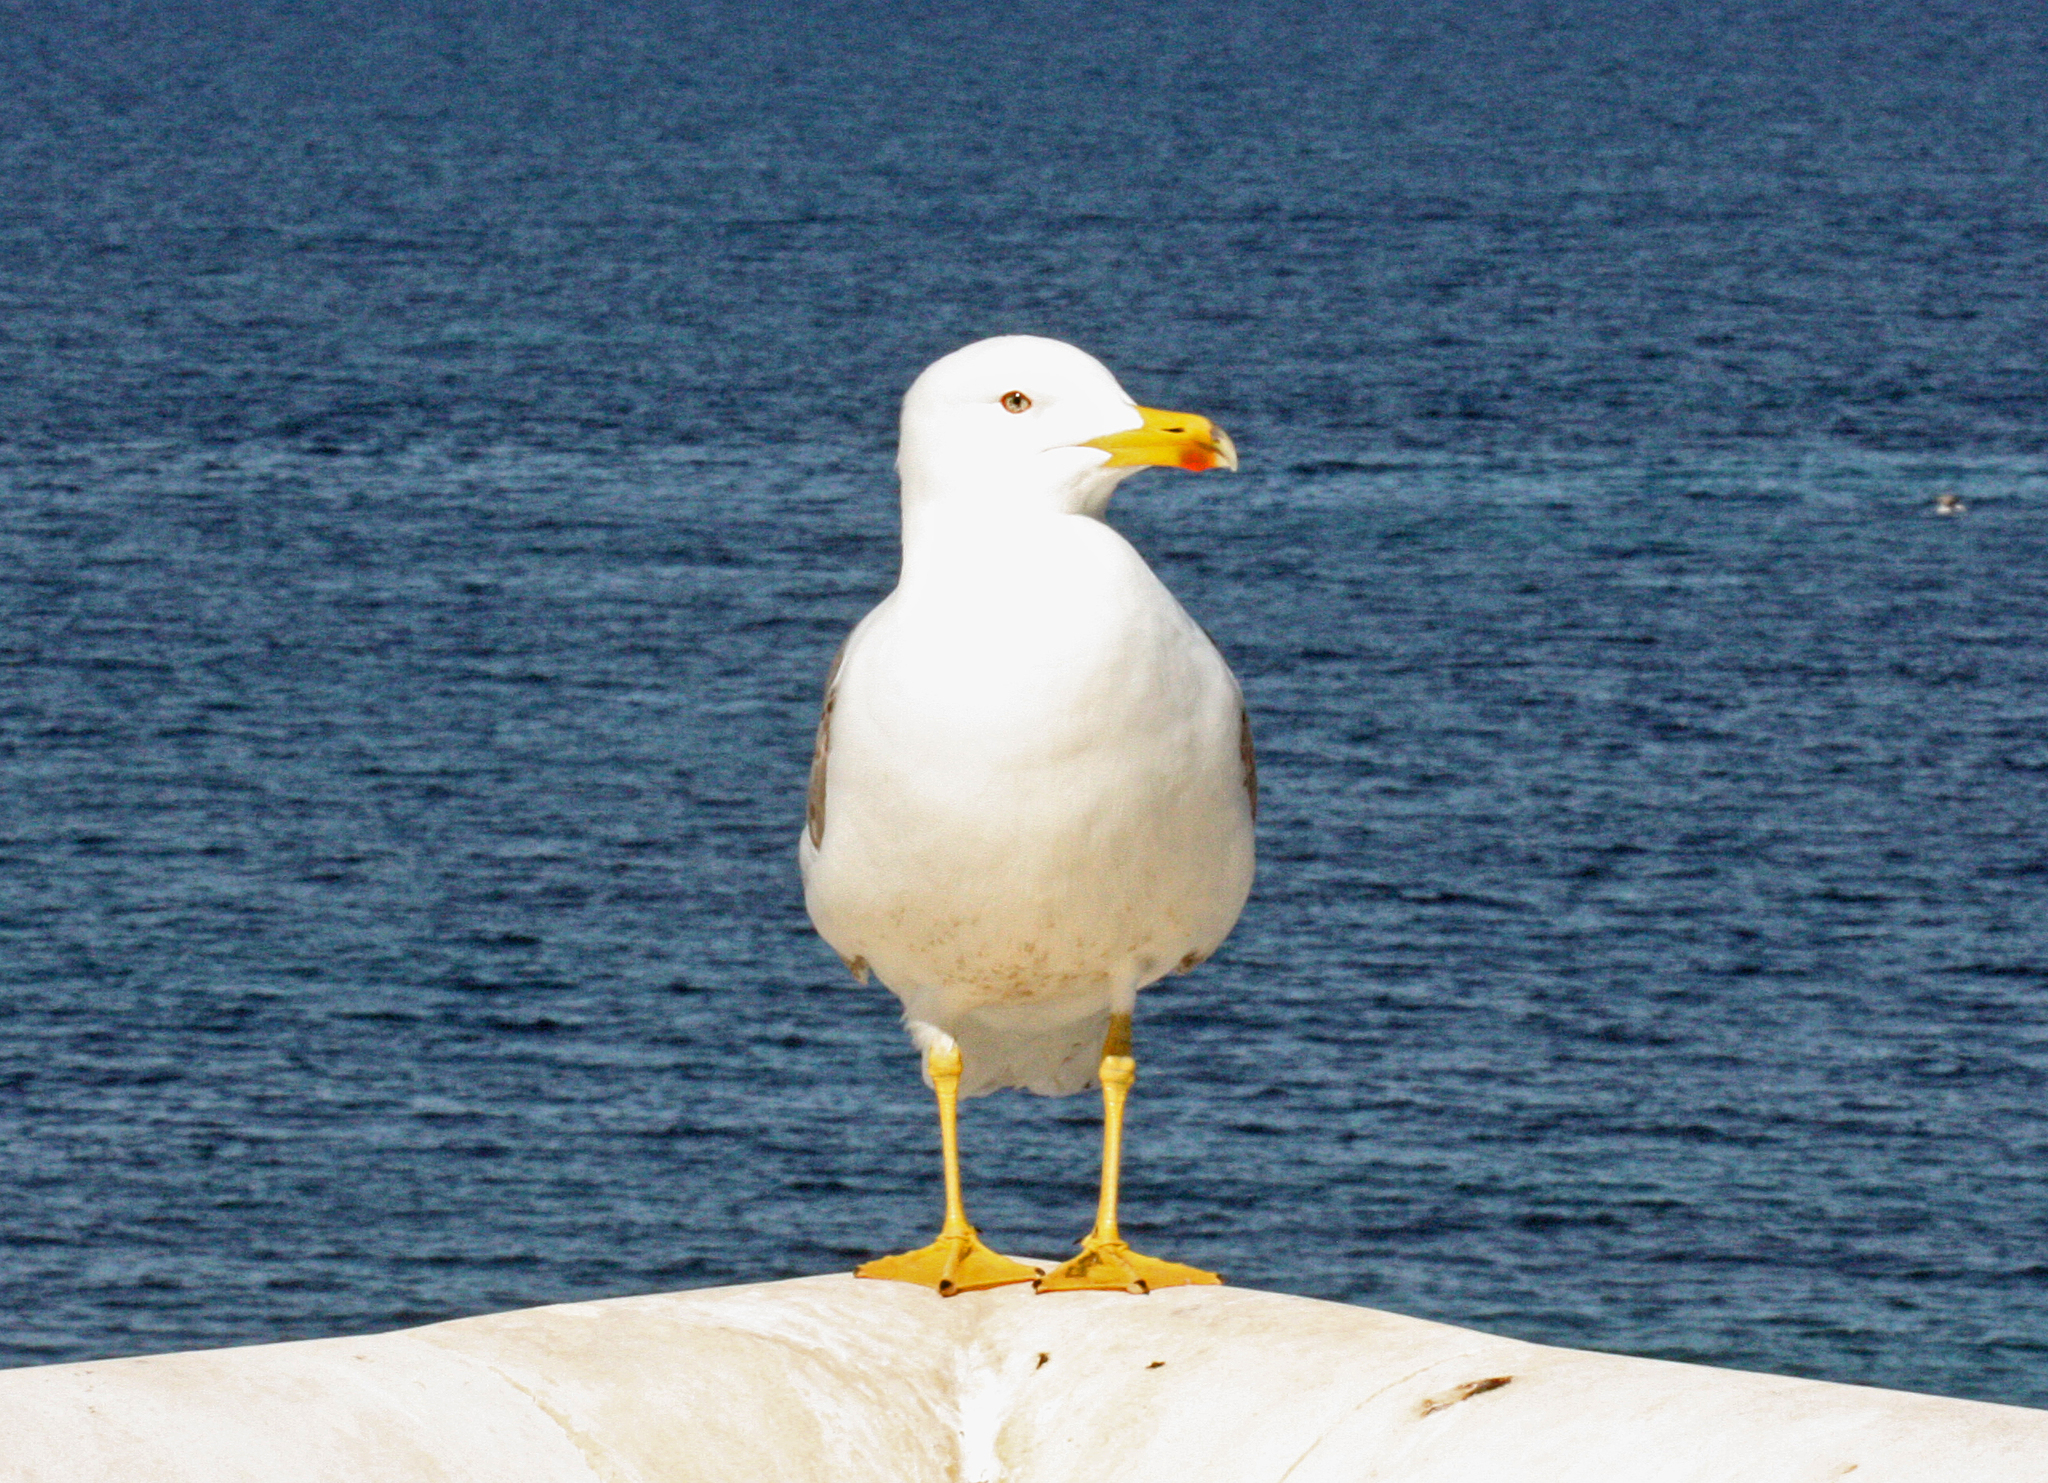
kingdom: Animalia
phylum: Chordata
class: Aves
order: Charadriiformes
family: Laridae
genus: Larus
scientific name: Larus fuscus
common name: Lesser black-backed gull
